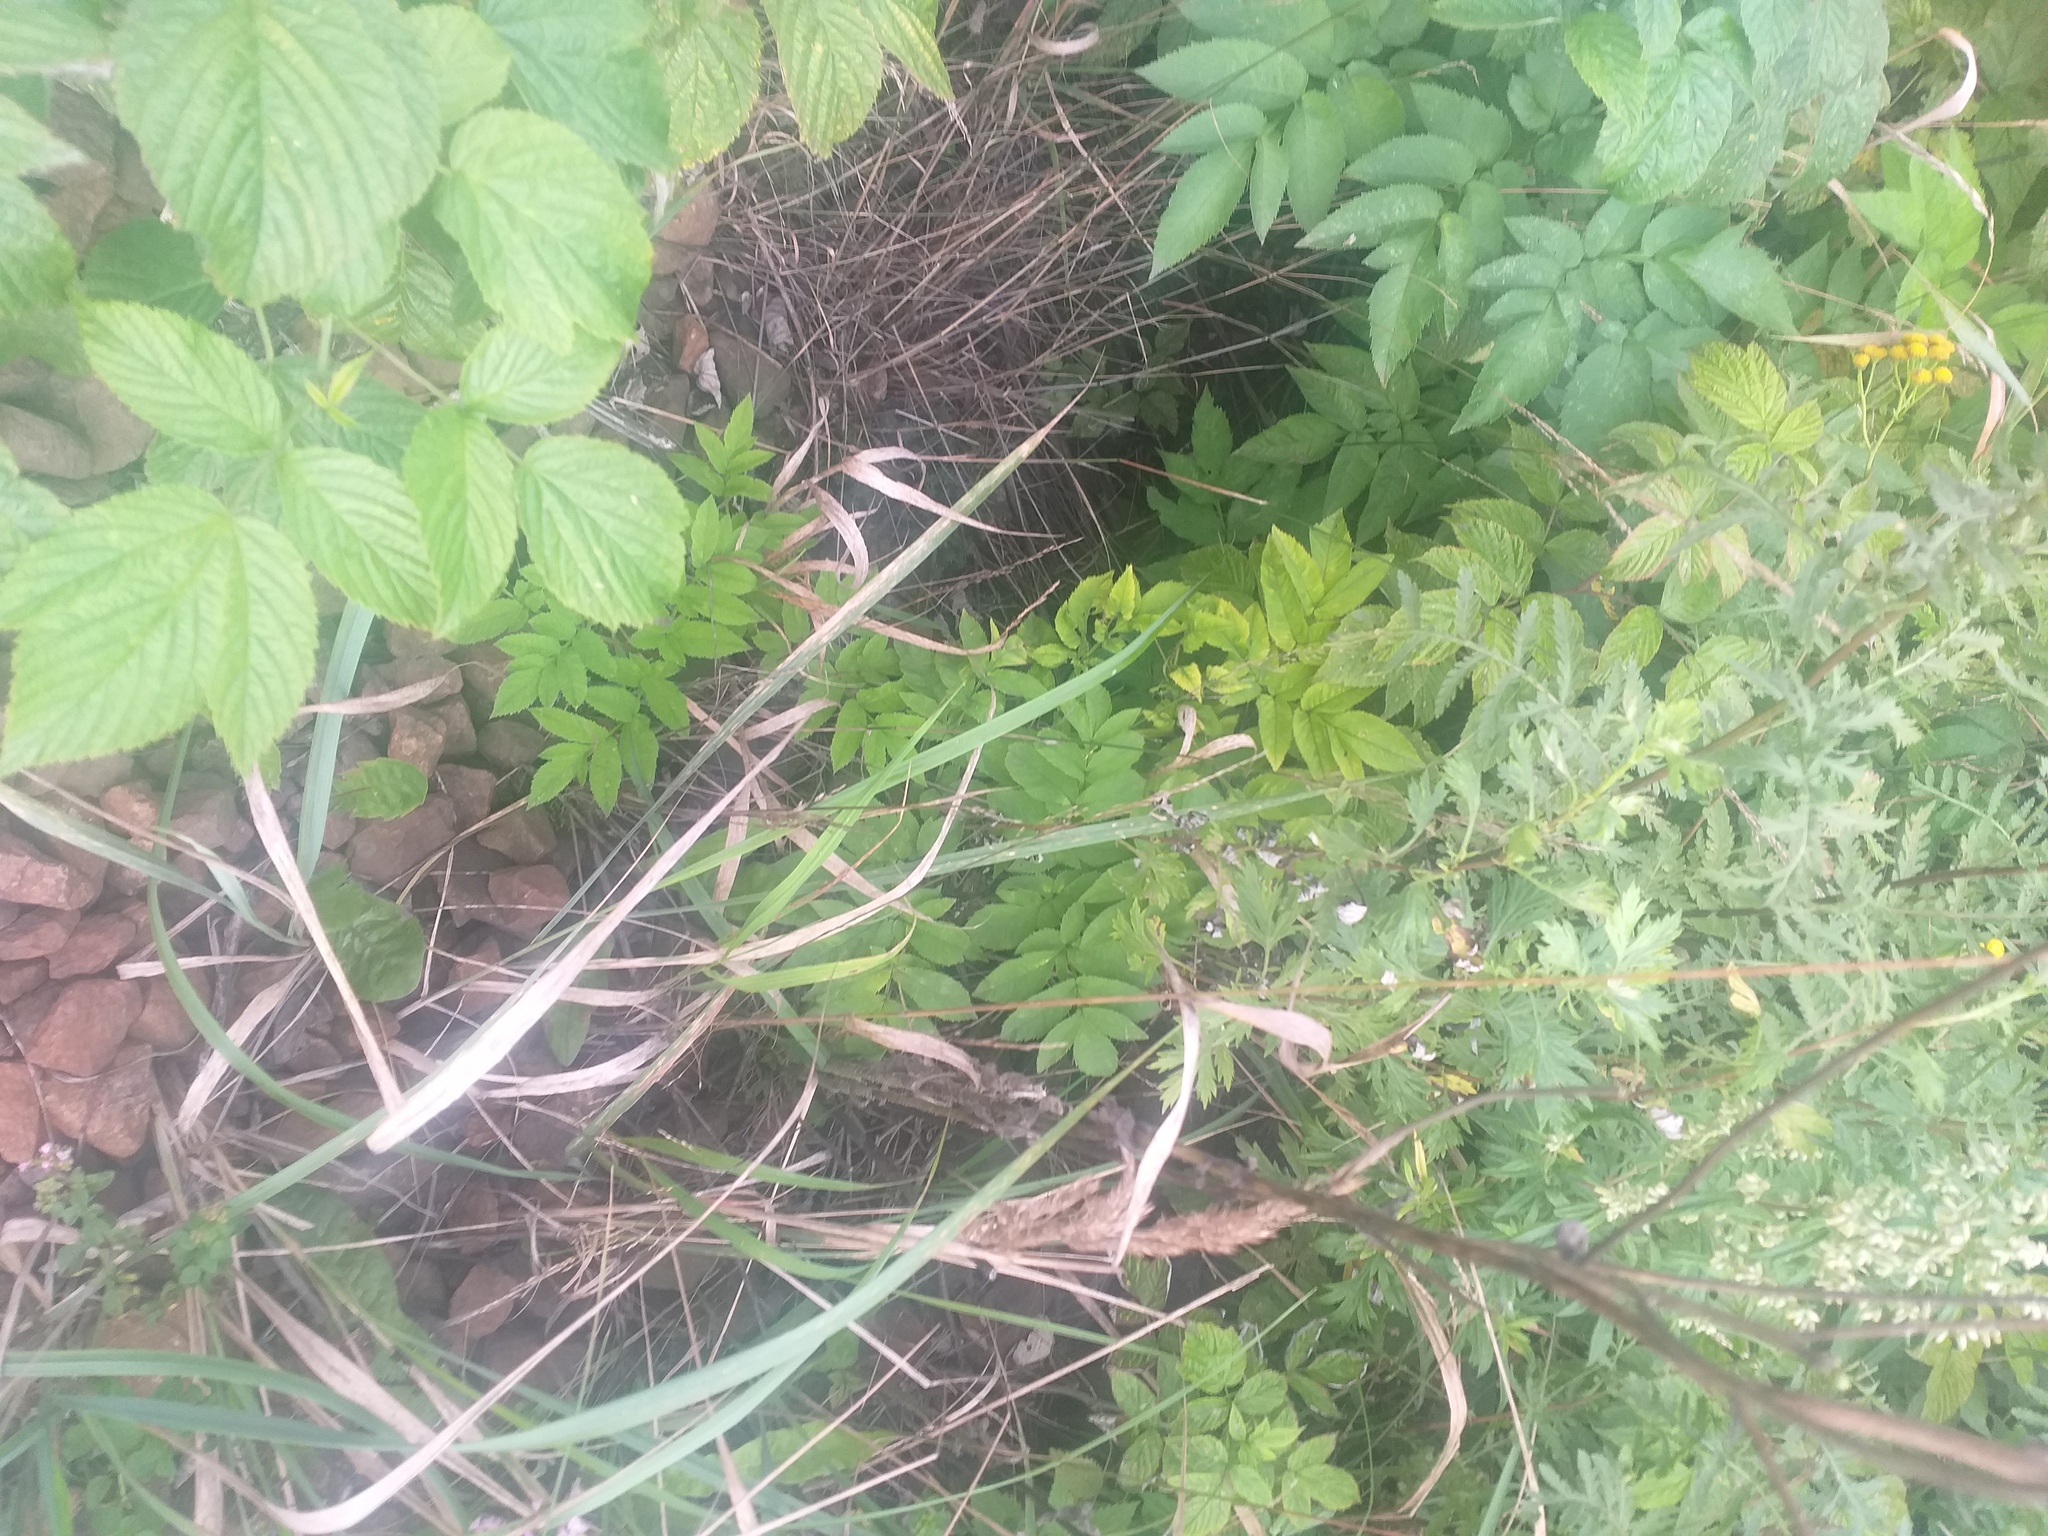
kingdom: Plantae
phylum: Tracheophyta
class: Magnoliopsida
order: Apiales
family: Apiaceae
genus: Angelica
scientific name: Angelica sylvestris
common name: Wild angelica
